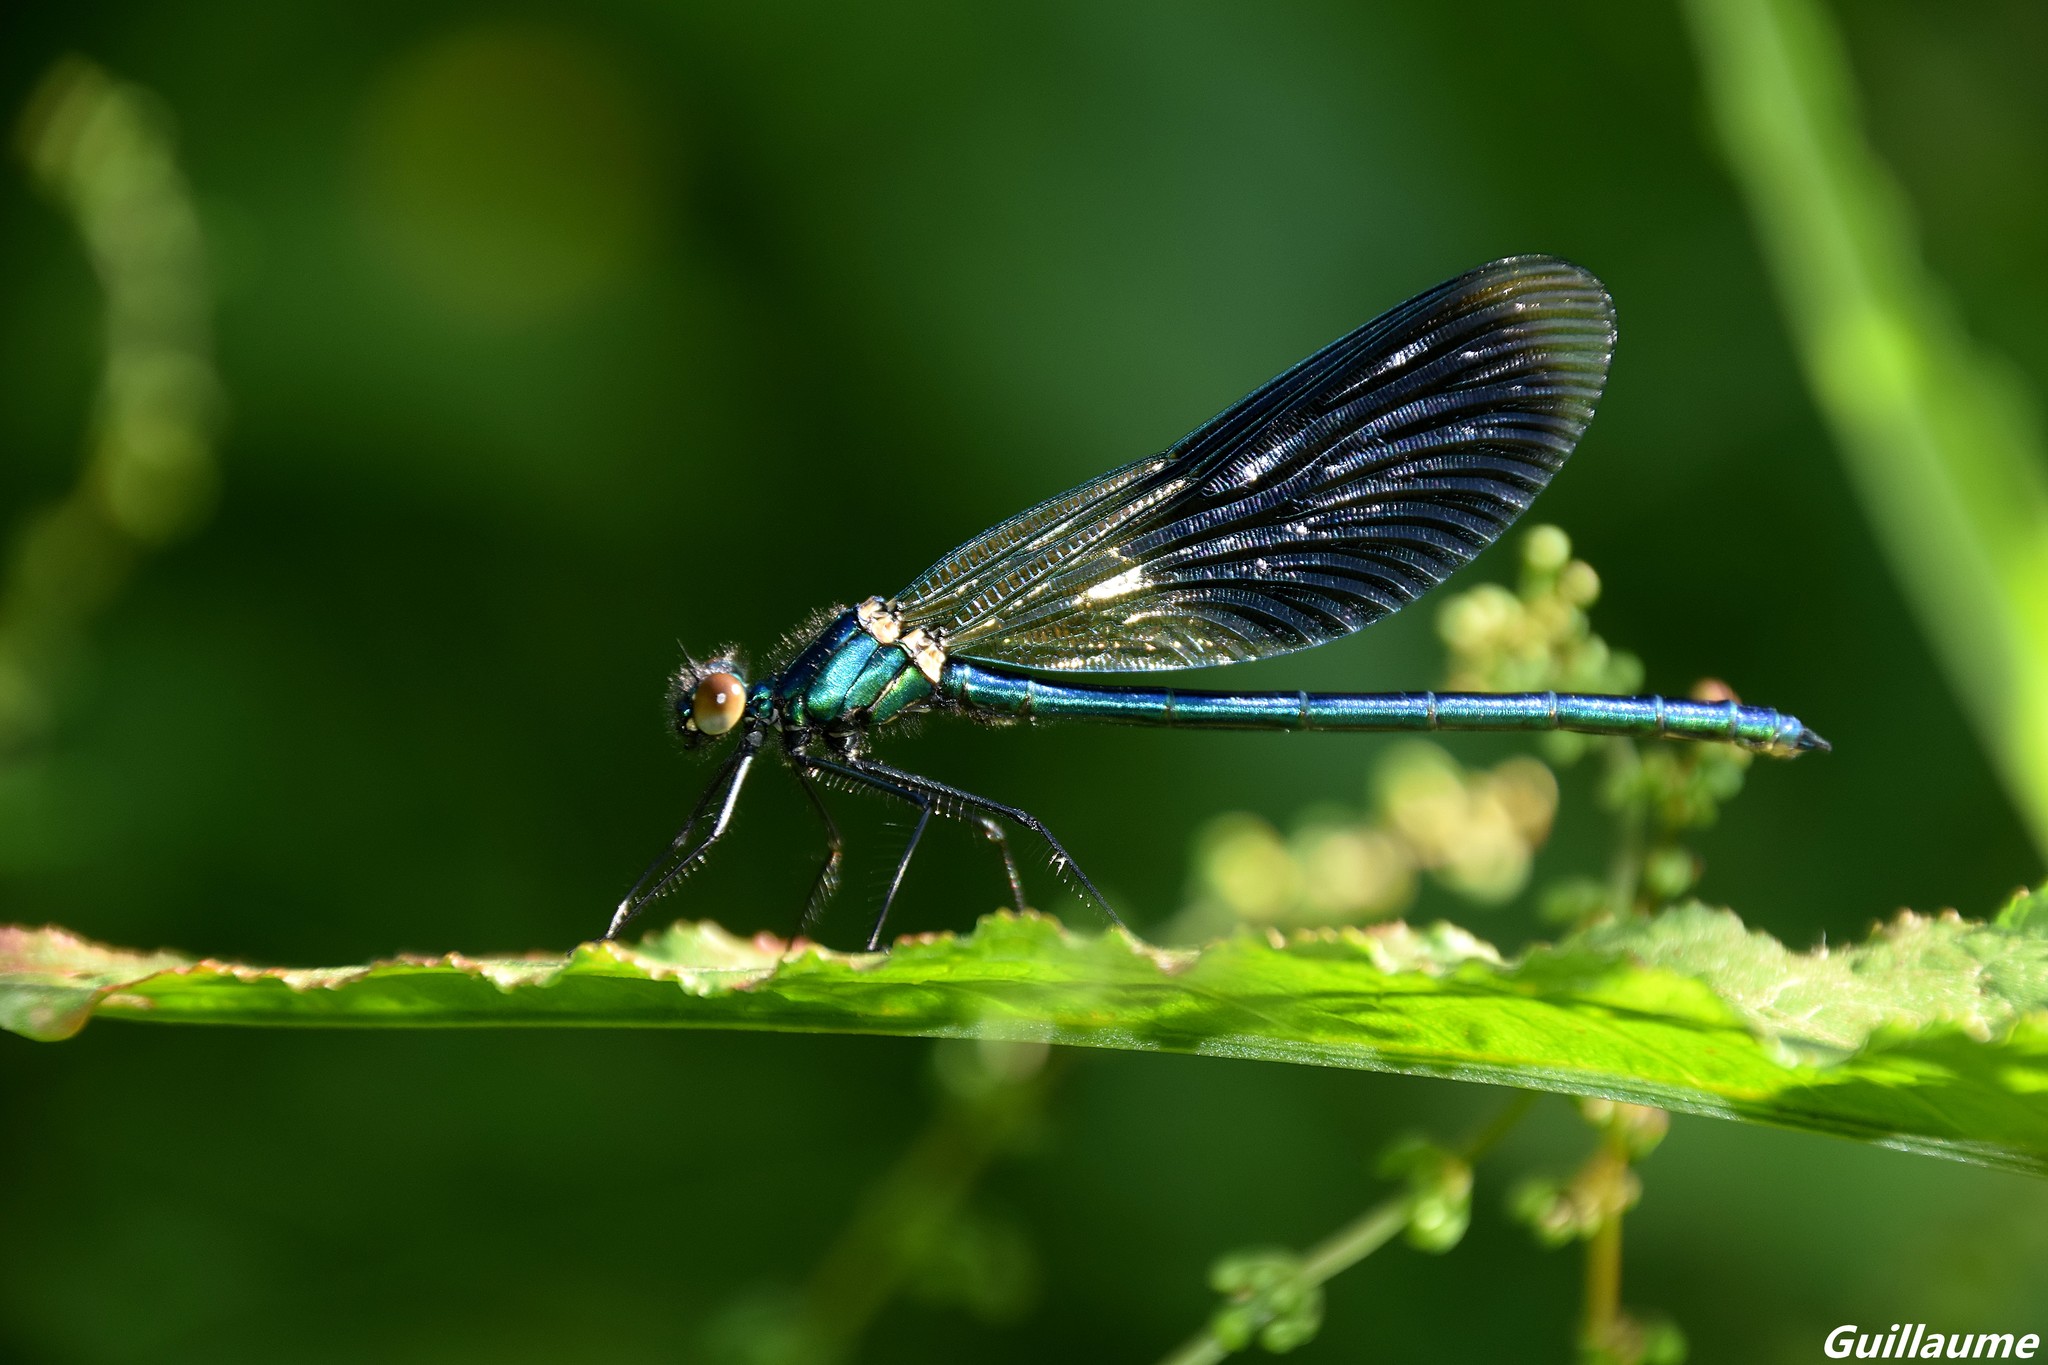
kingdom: Animalia
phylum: Arthropoda
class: Insecta
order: Odonata
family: Calopterygidae
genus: Calopteryx
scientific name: Calopteryx splendens
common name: Banded demoiselle
